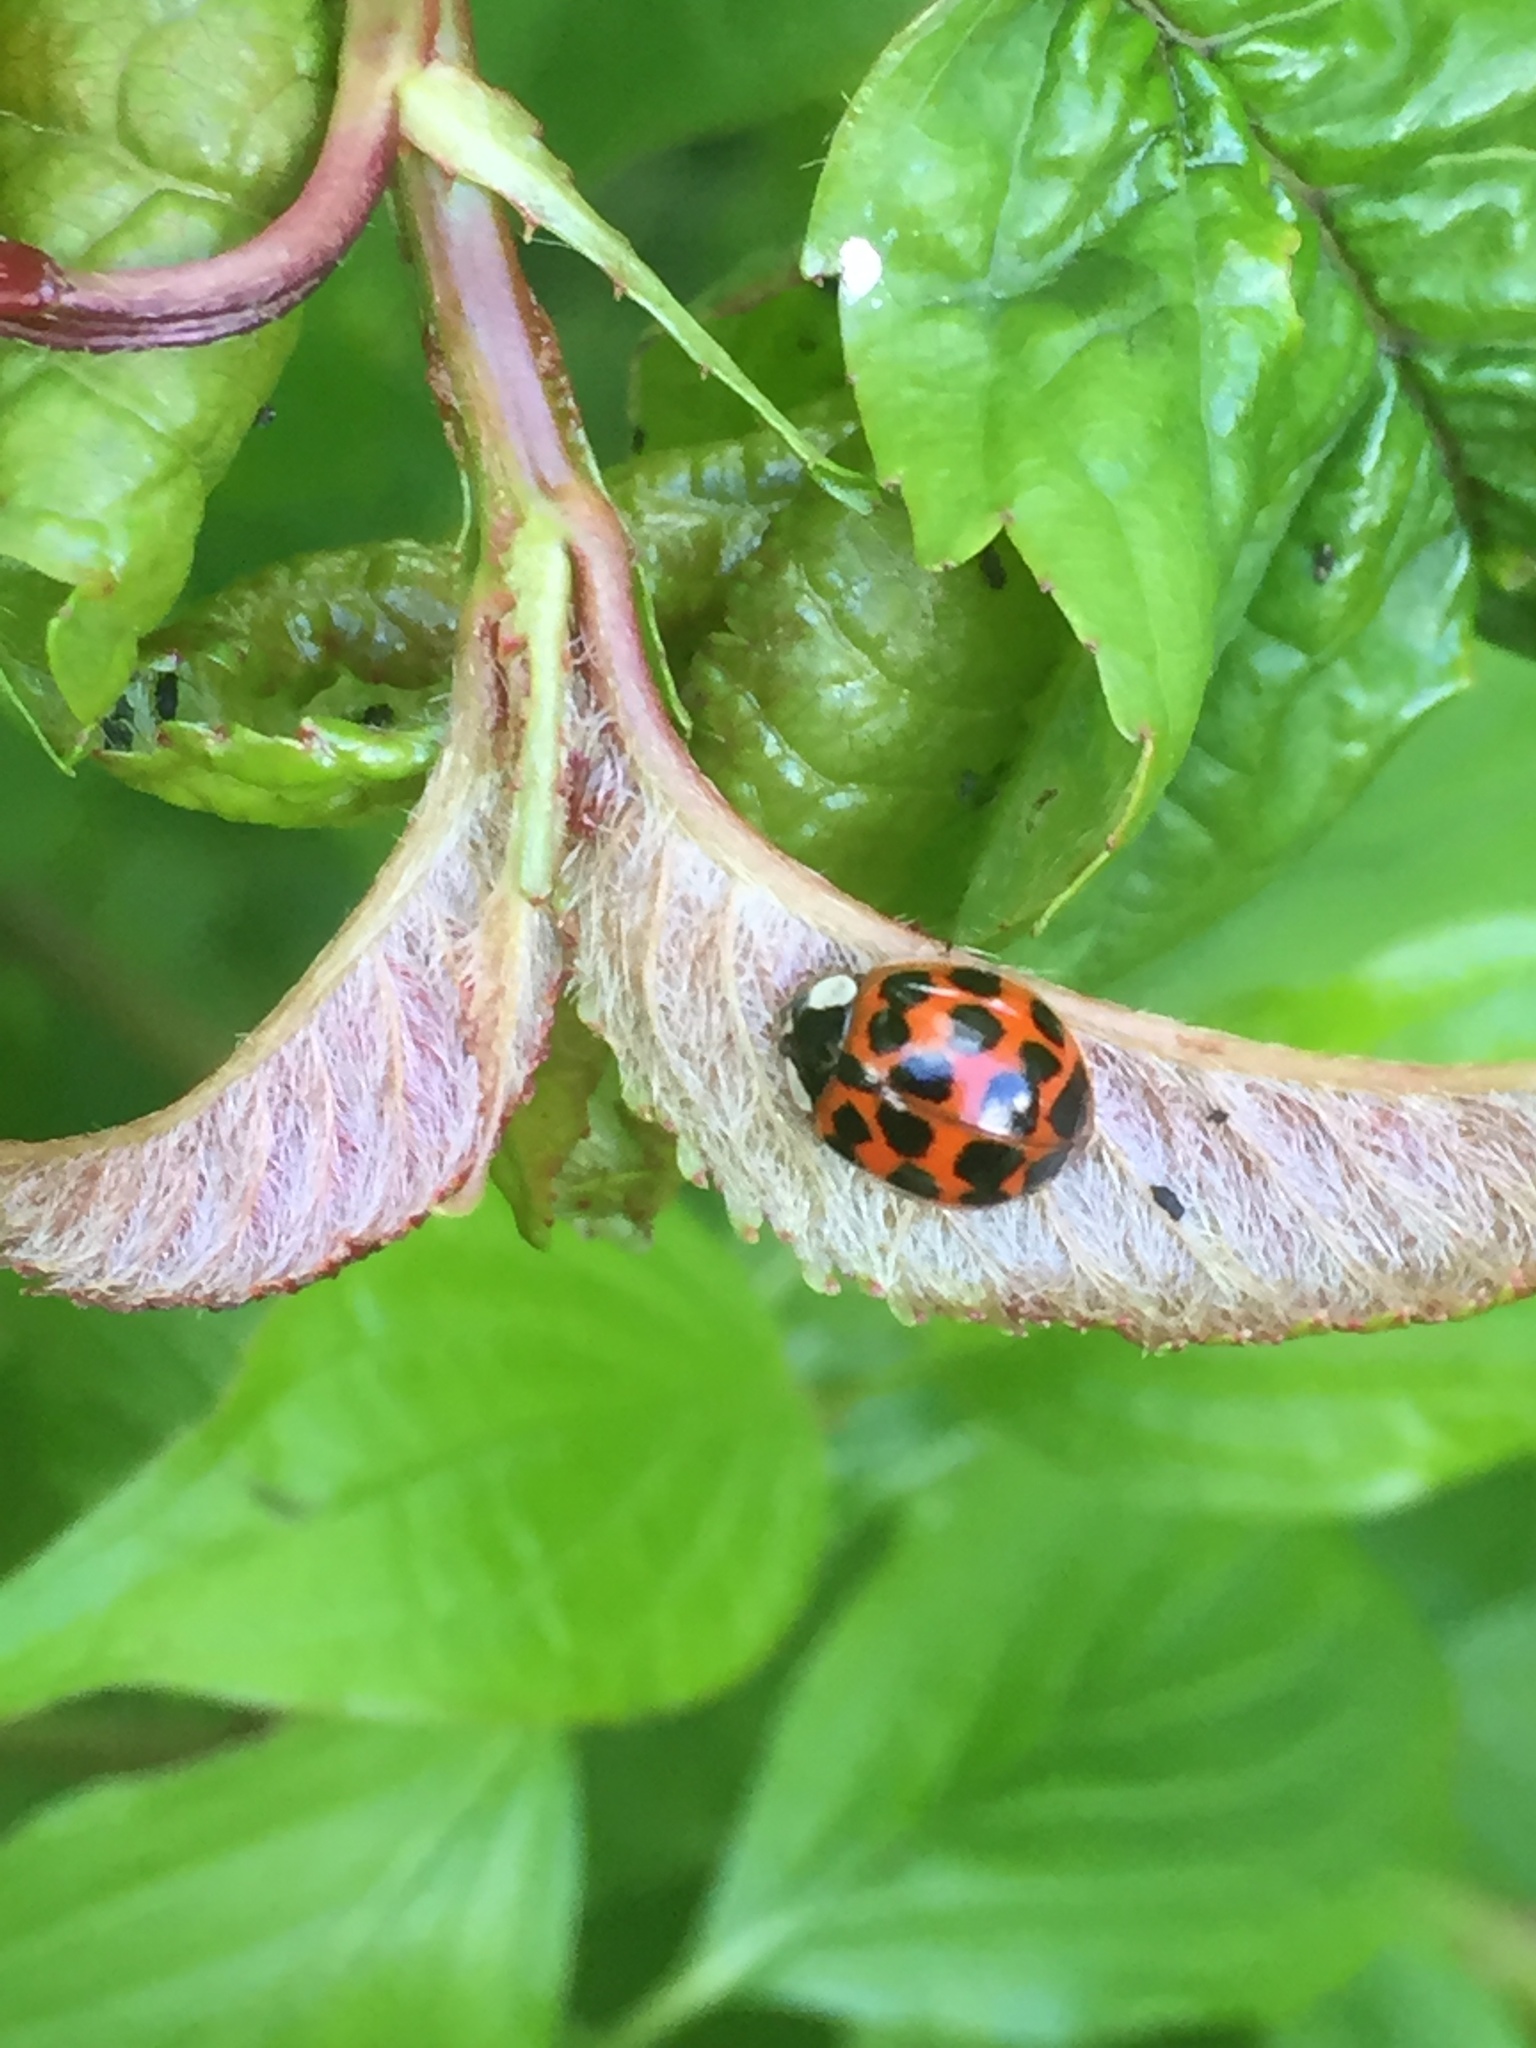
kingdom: Animalia
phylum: Arthropoda
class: Insecta
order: Coleoptera
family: Coccinellidae
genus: Harmonia
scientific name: Harmonia axyridis
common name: Harlequin ladybird
